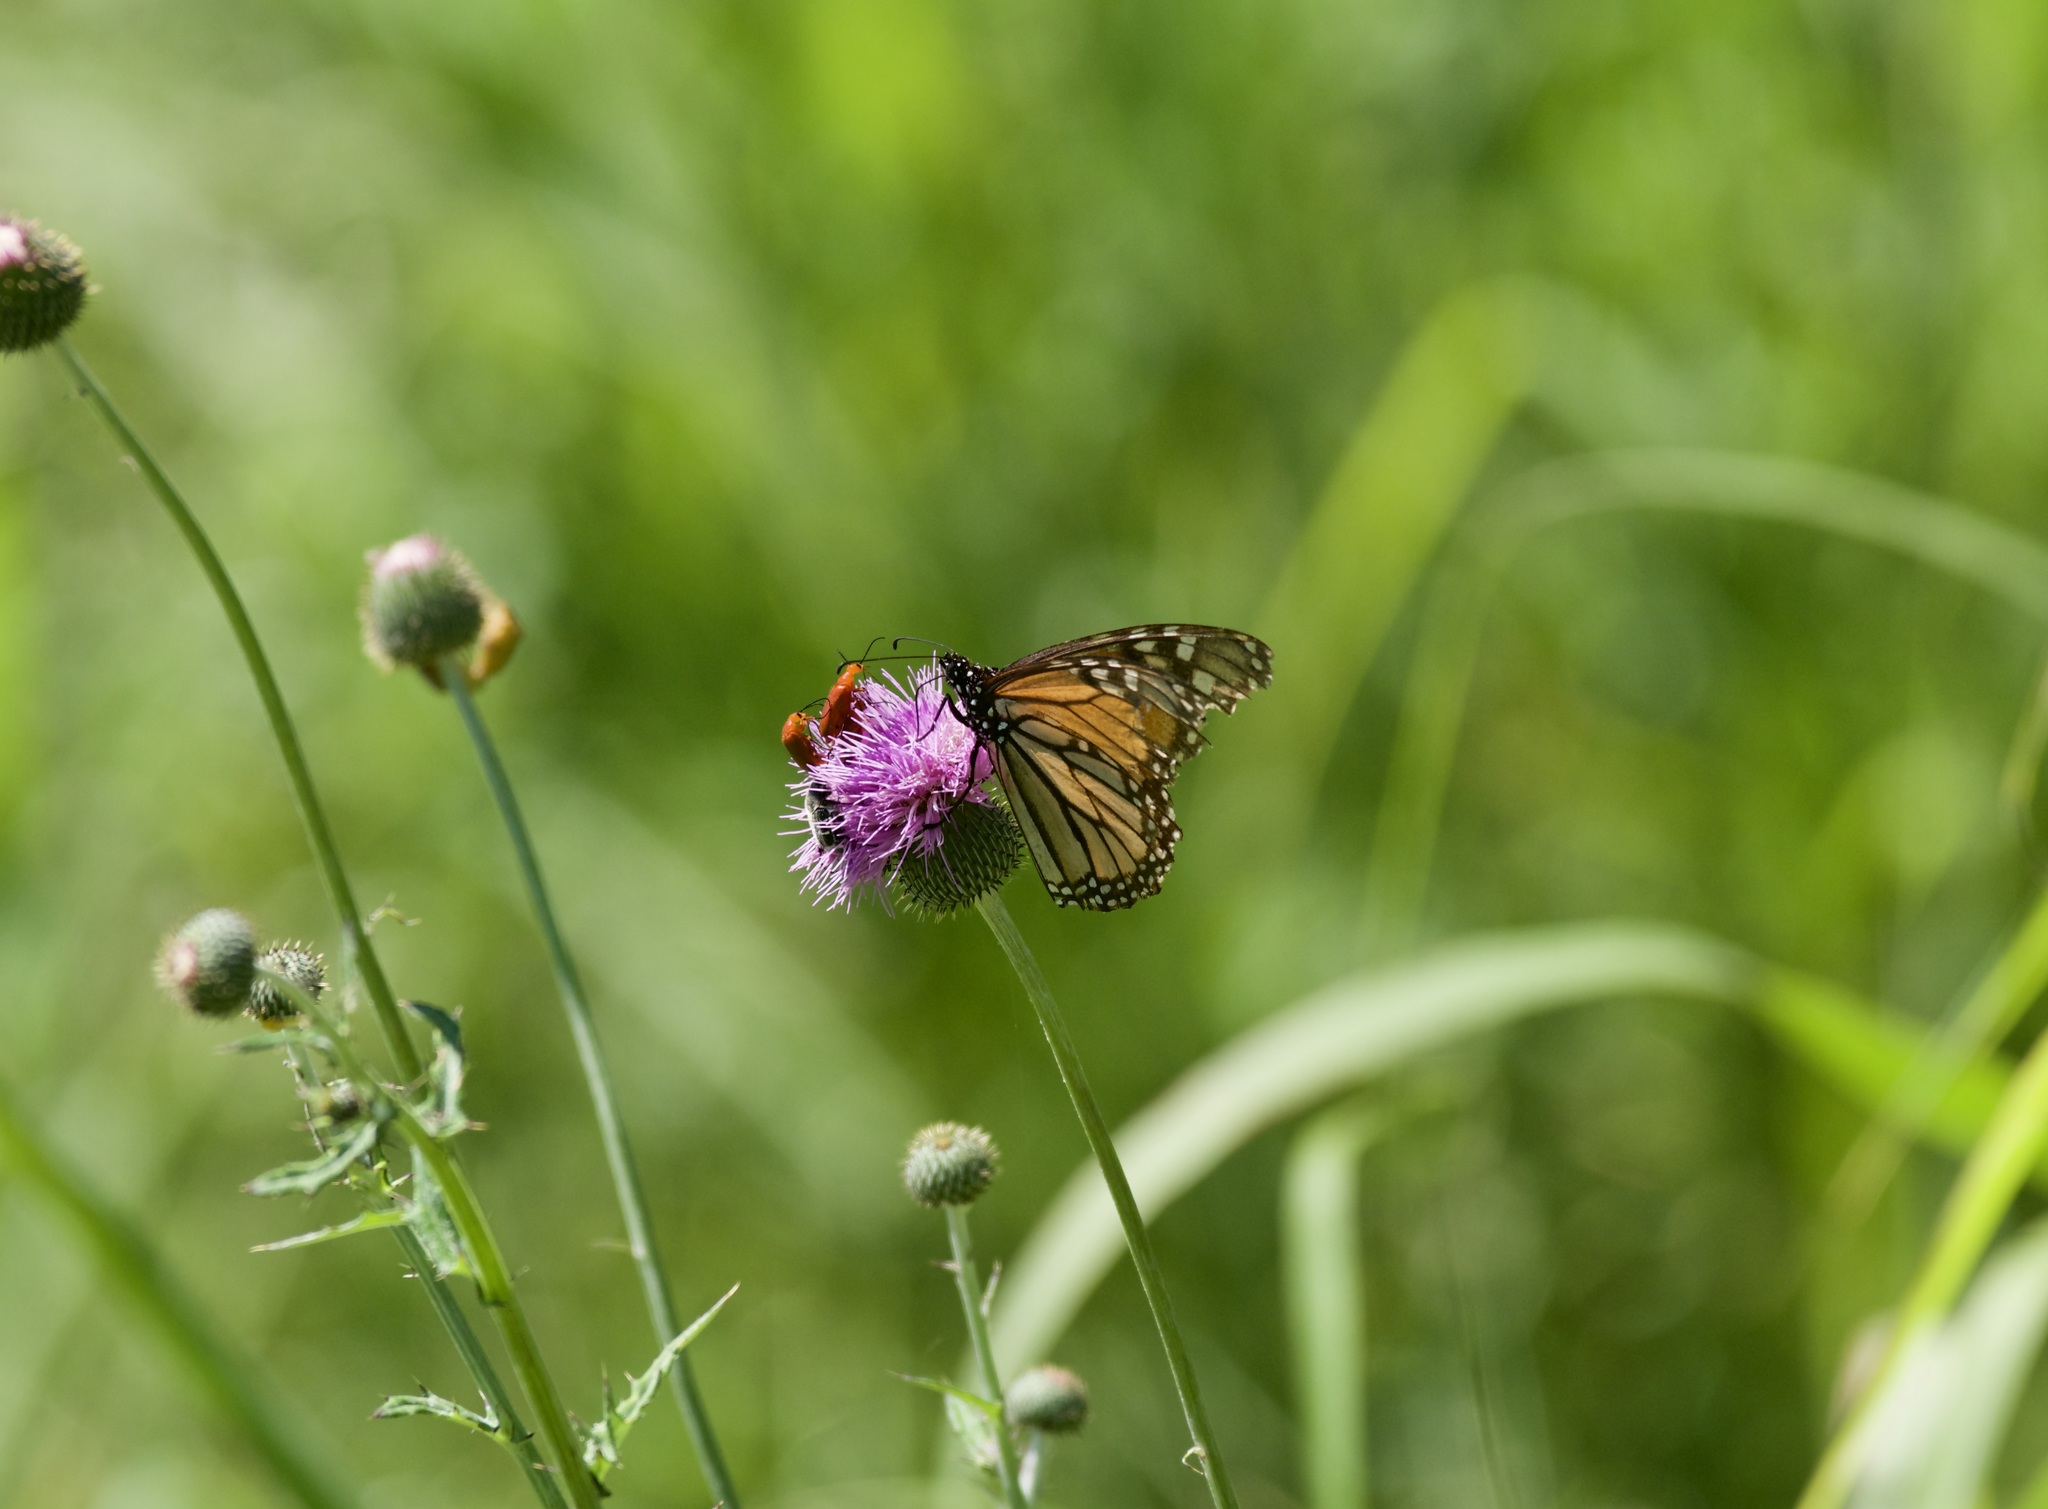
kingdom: Animalia
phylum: Arthropoda
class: Insecta
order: Lepidoptera
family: Nymphalidae
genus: Danaus
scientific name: Danaus plexippus
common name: Monarch
